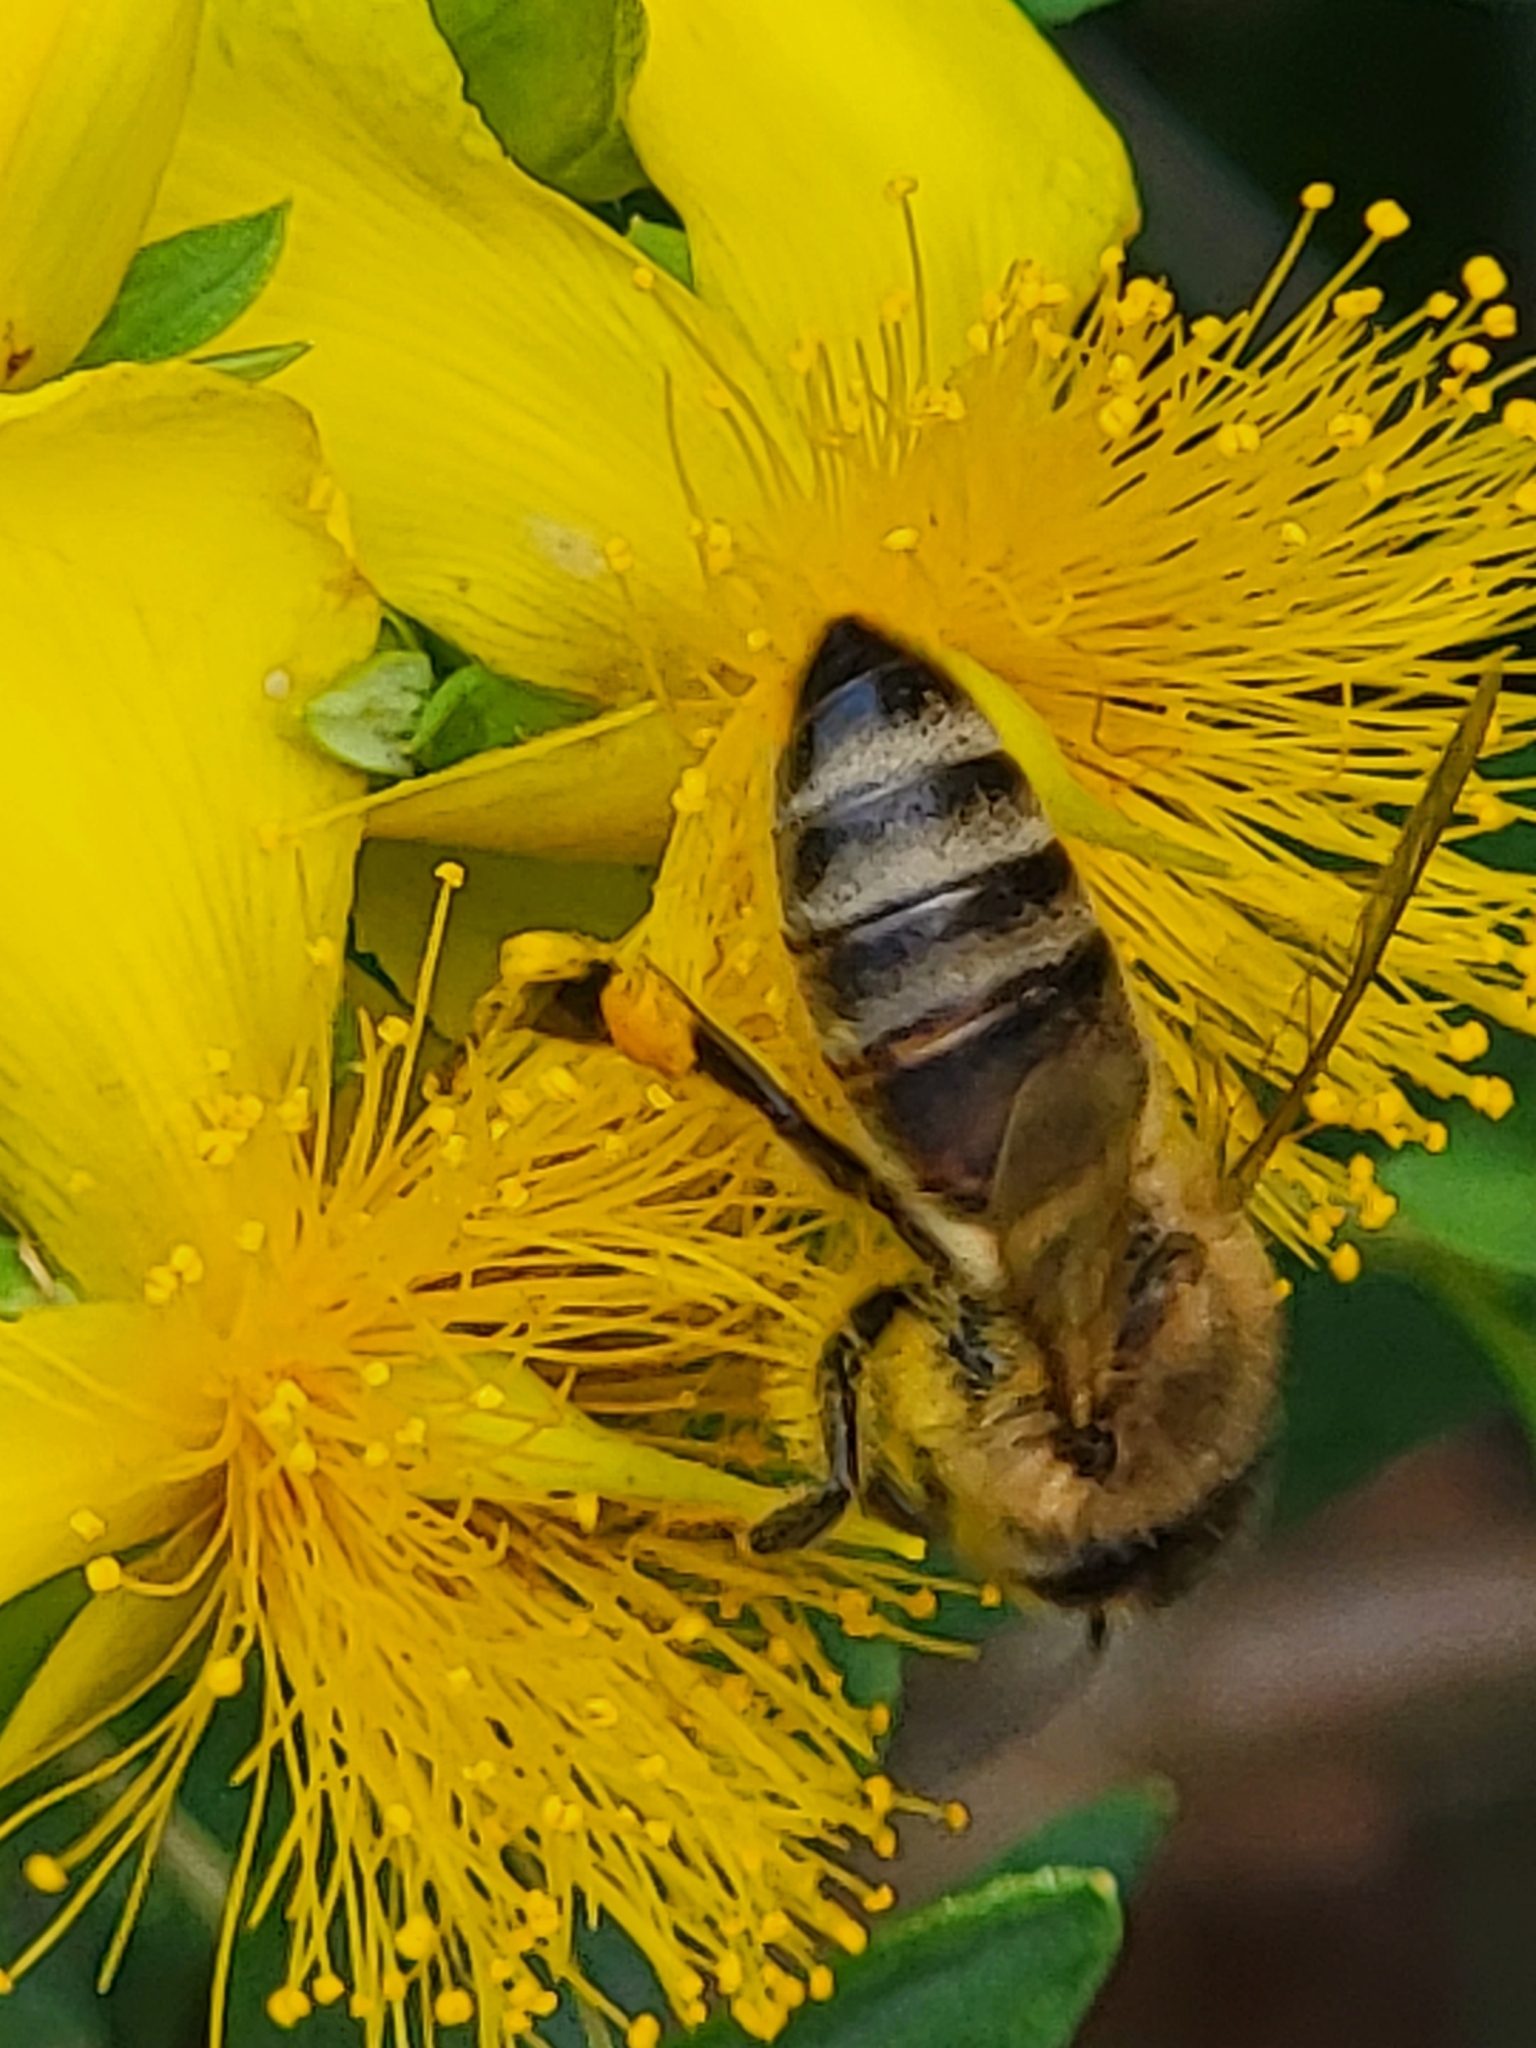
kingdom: Animalia
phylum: Arthropoda
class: Insecta
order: Hymenoptera
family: Apidae
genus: Apis
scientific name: Apis mellifera
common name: Honey bee
